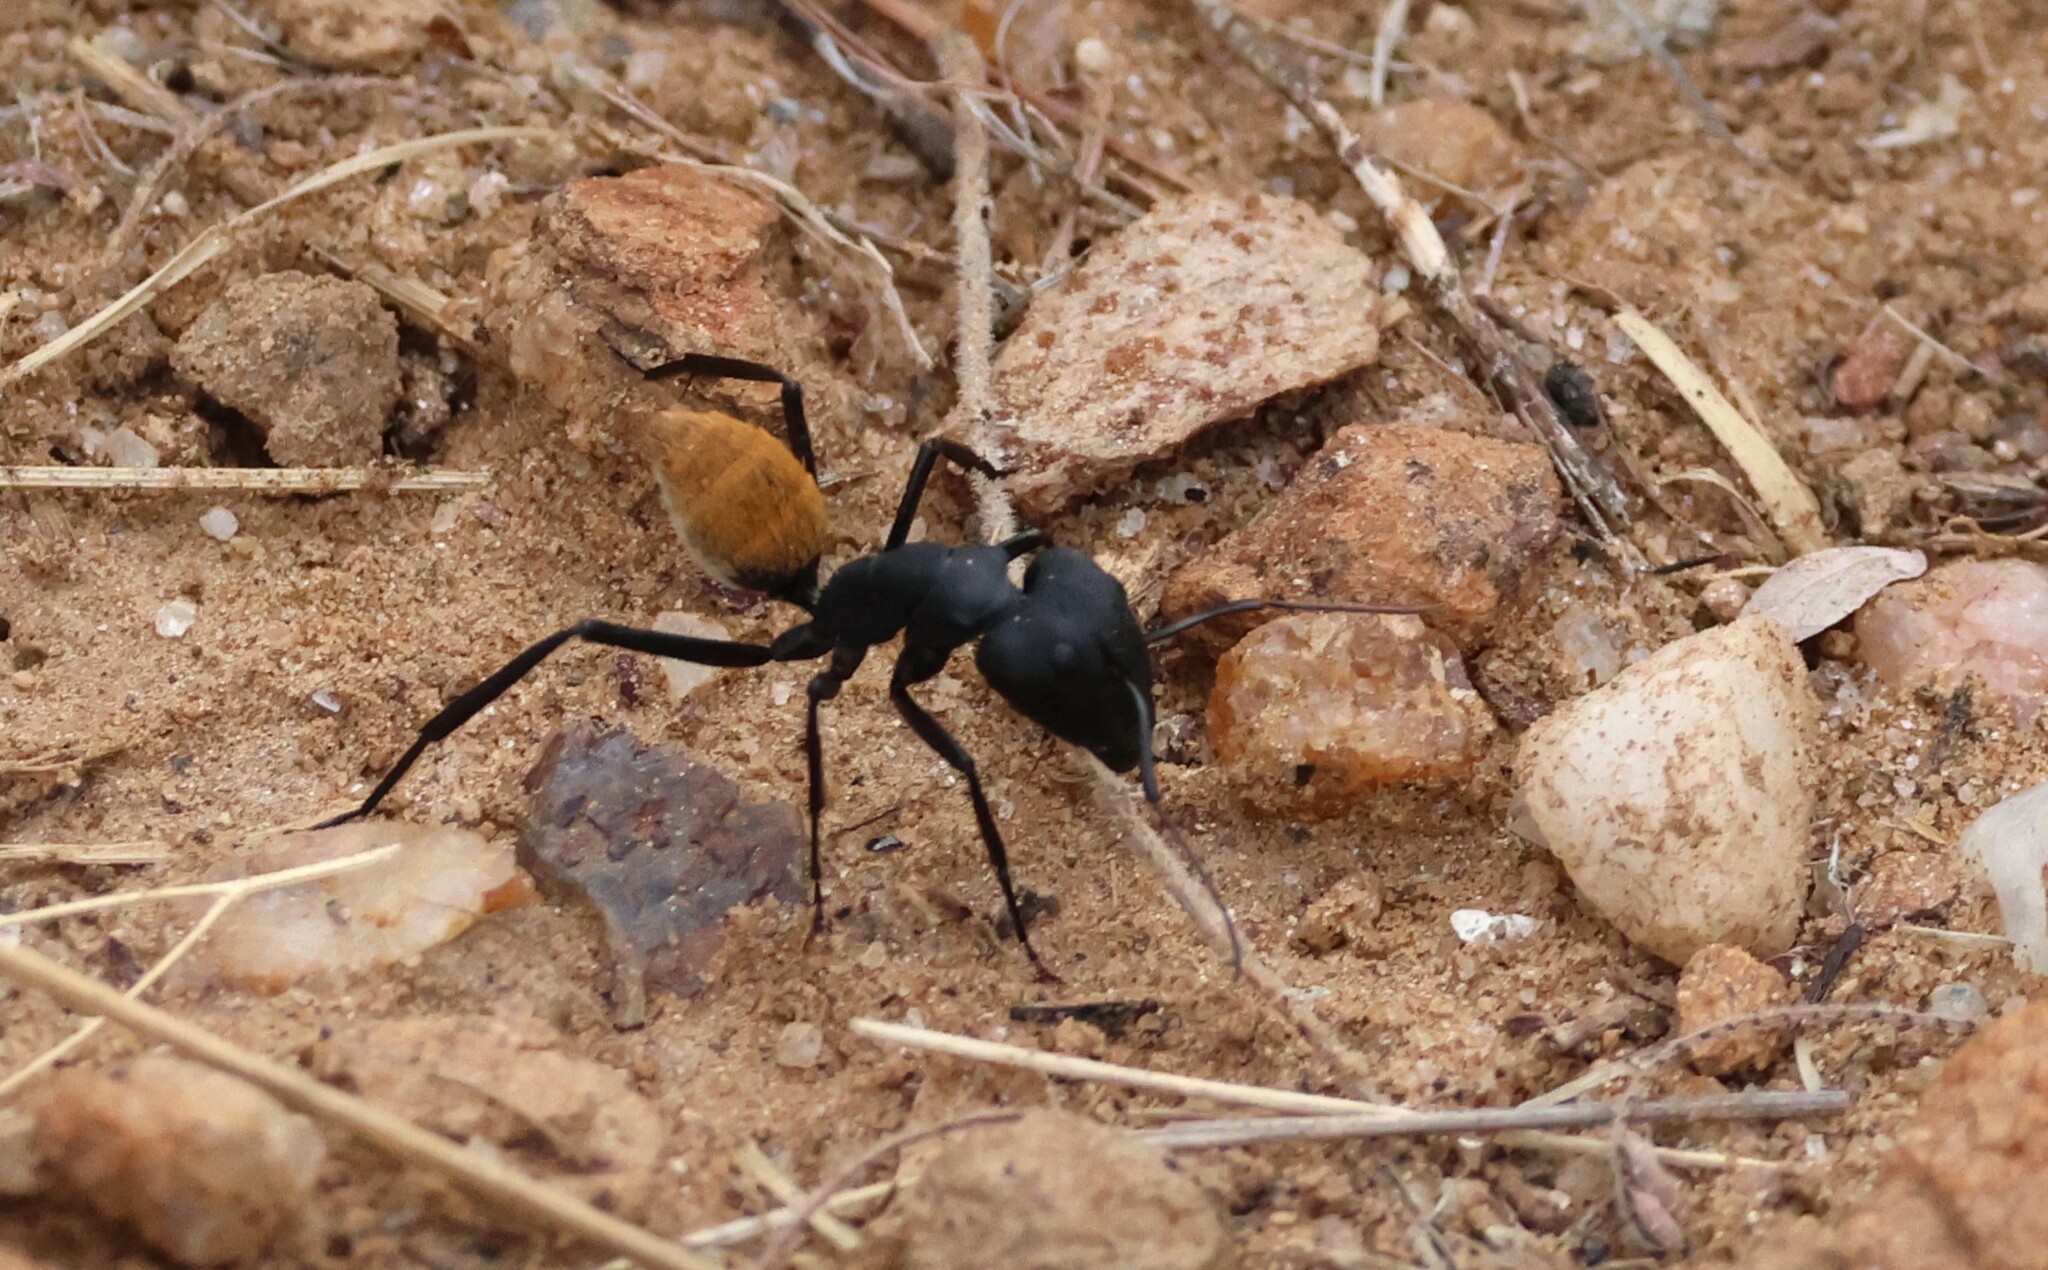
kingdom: Animalia
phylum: Arthropoda
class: Insecta
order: Hymenoptera
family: Formicidae
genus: Camponotus
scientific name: Camponotus fulvopilosus
